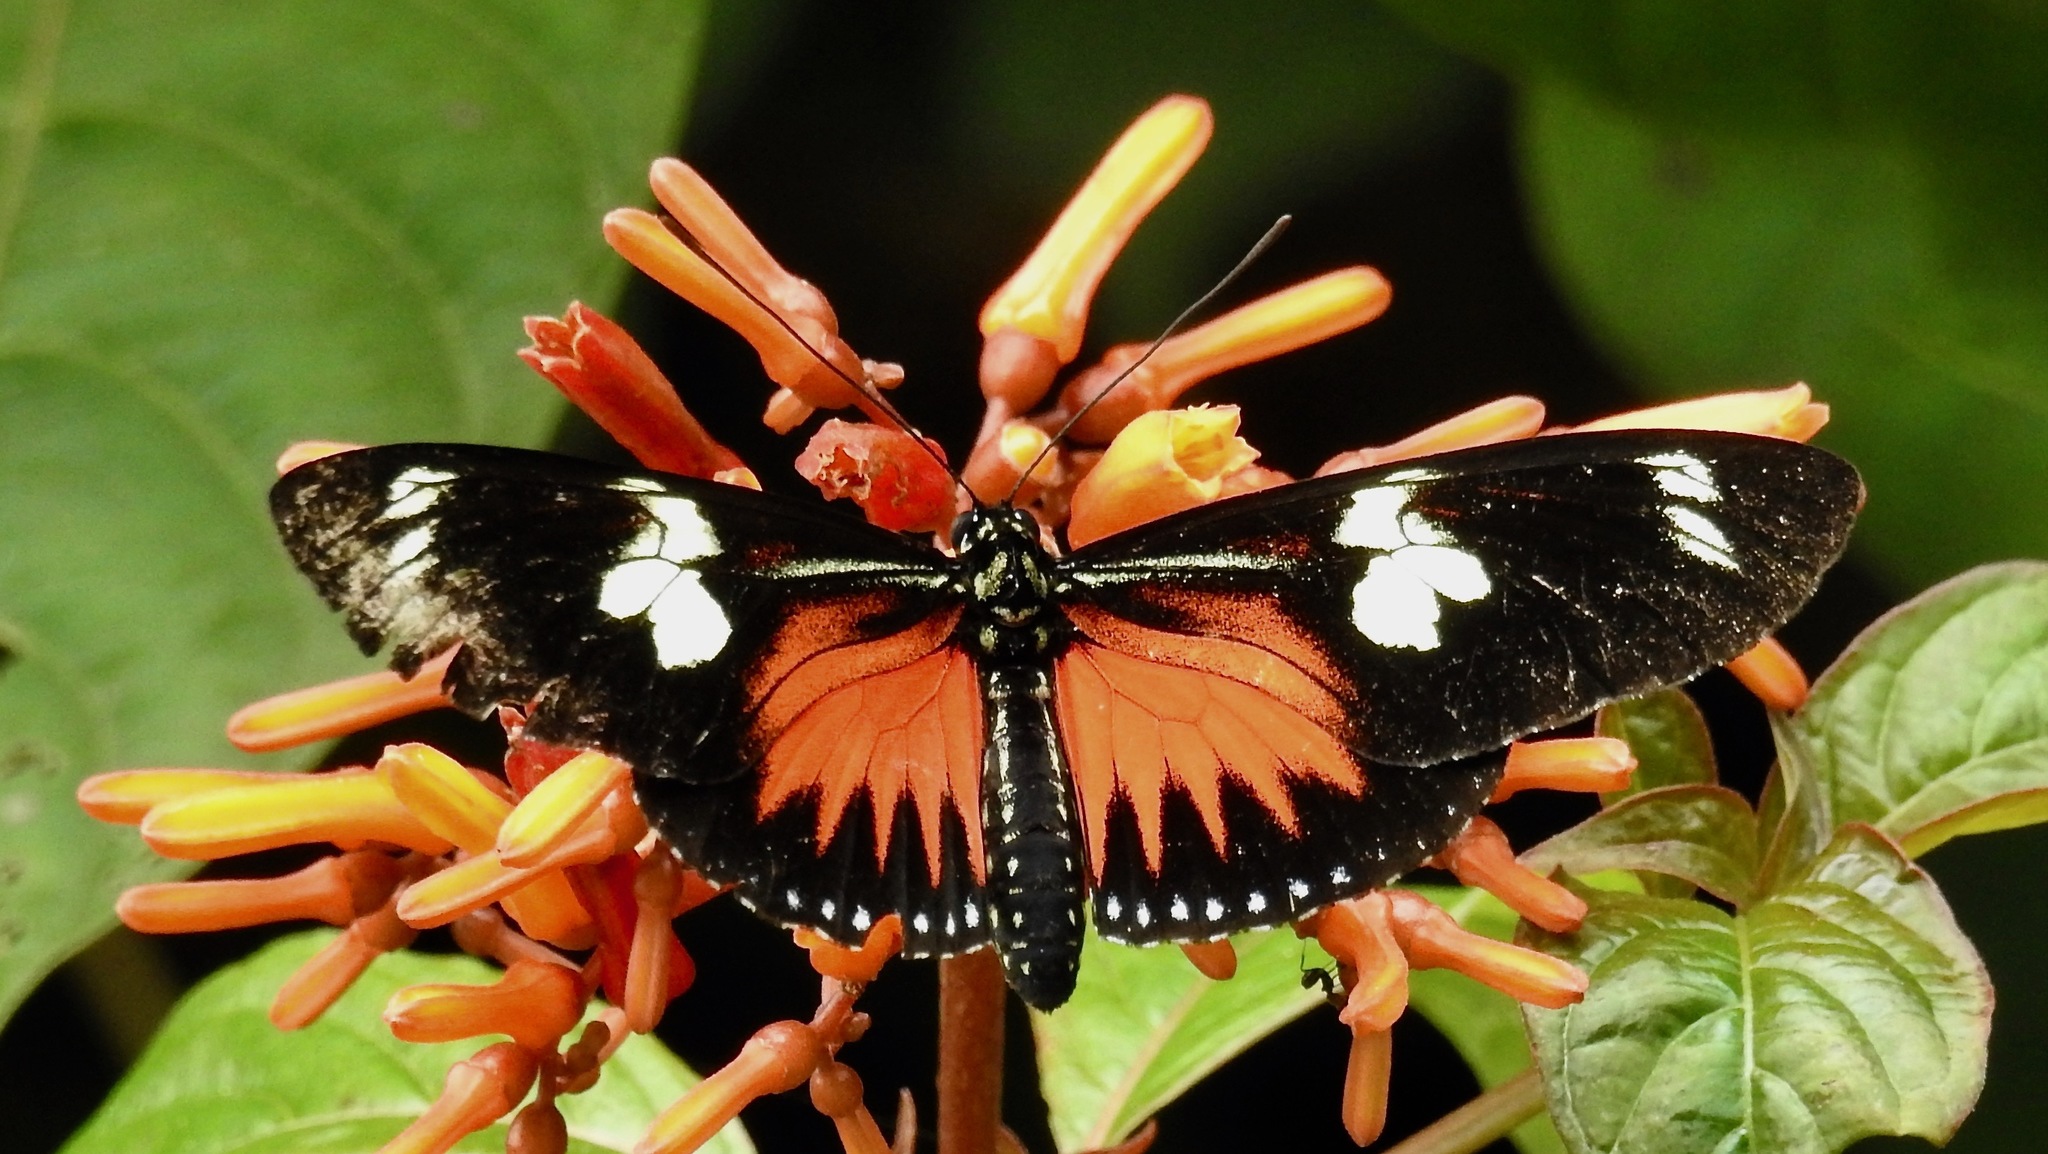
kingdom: Animalia
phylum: Arthropoda
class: Insecta
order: Lepidoptera
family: Nymphalidae
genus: Heliconius
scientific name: Heliconius doris
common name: Doris longwing
